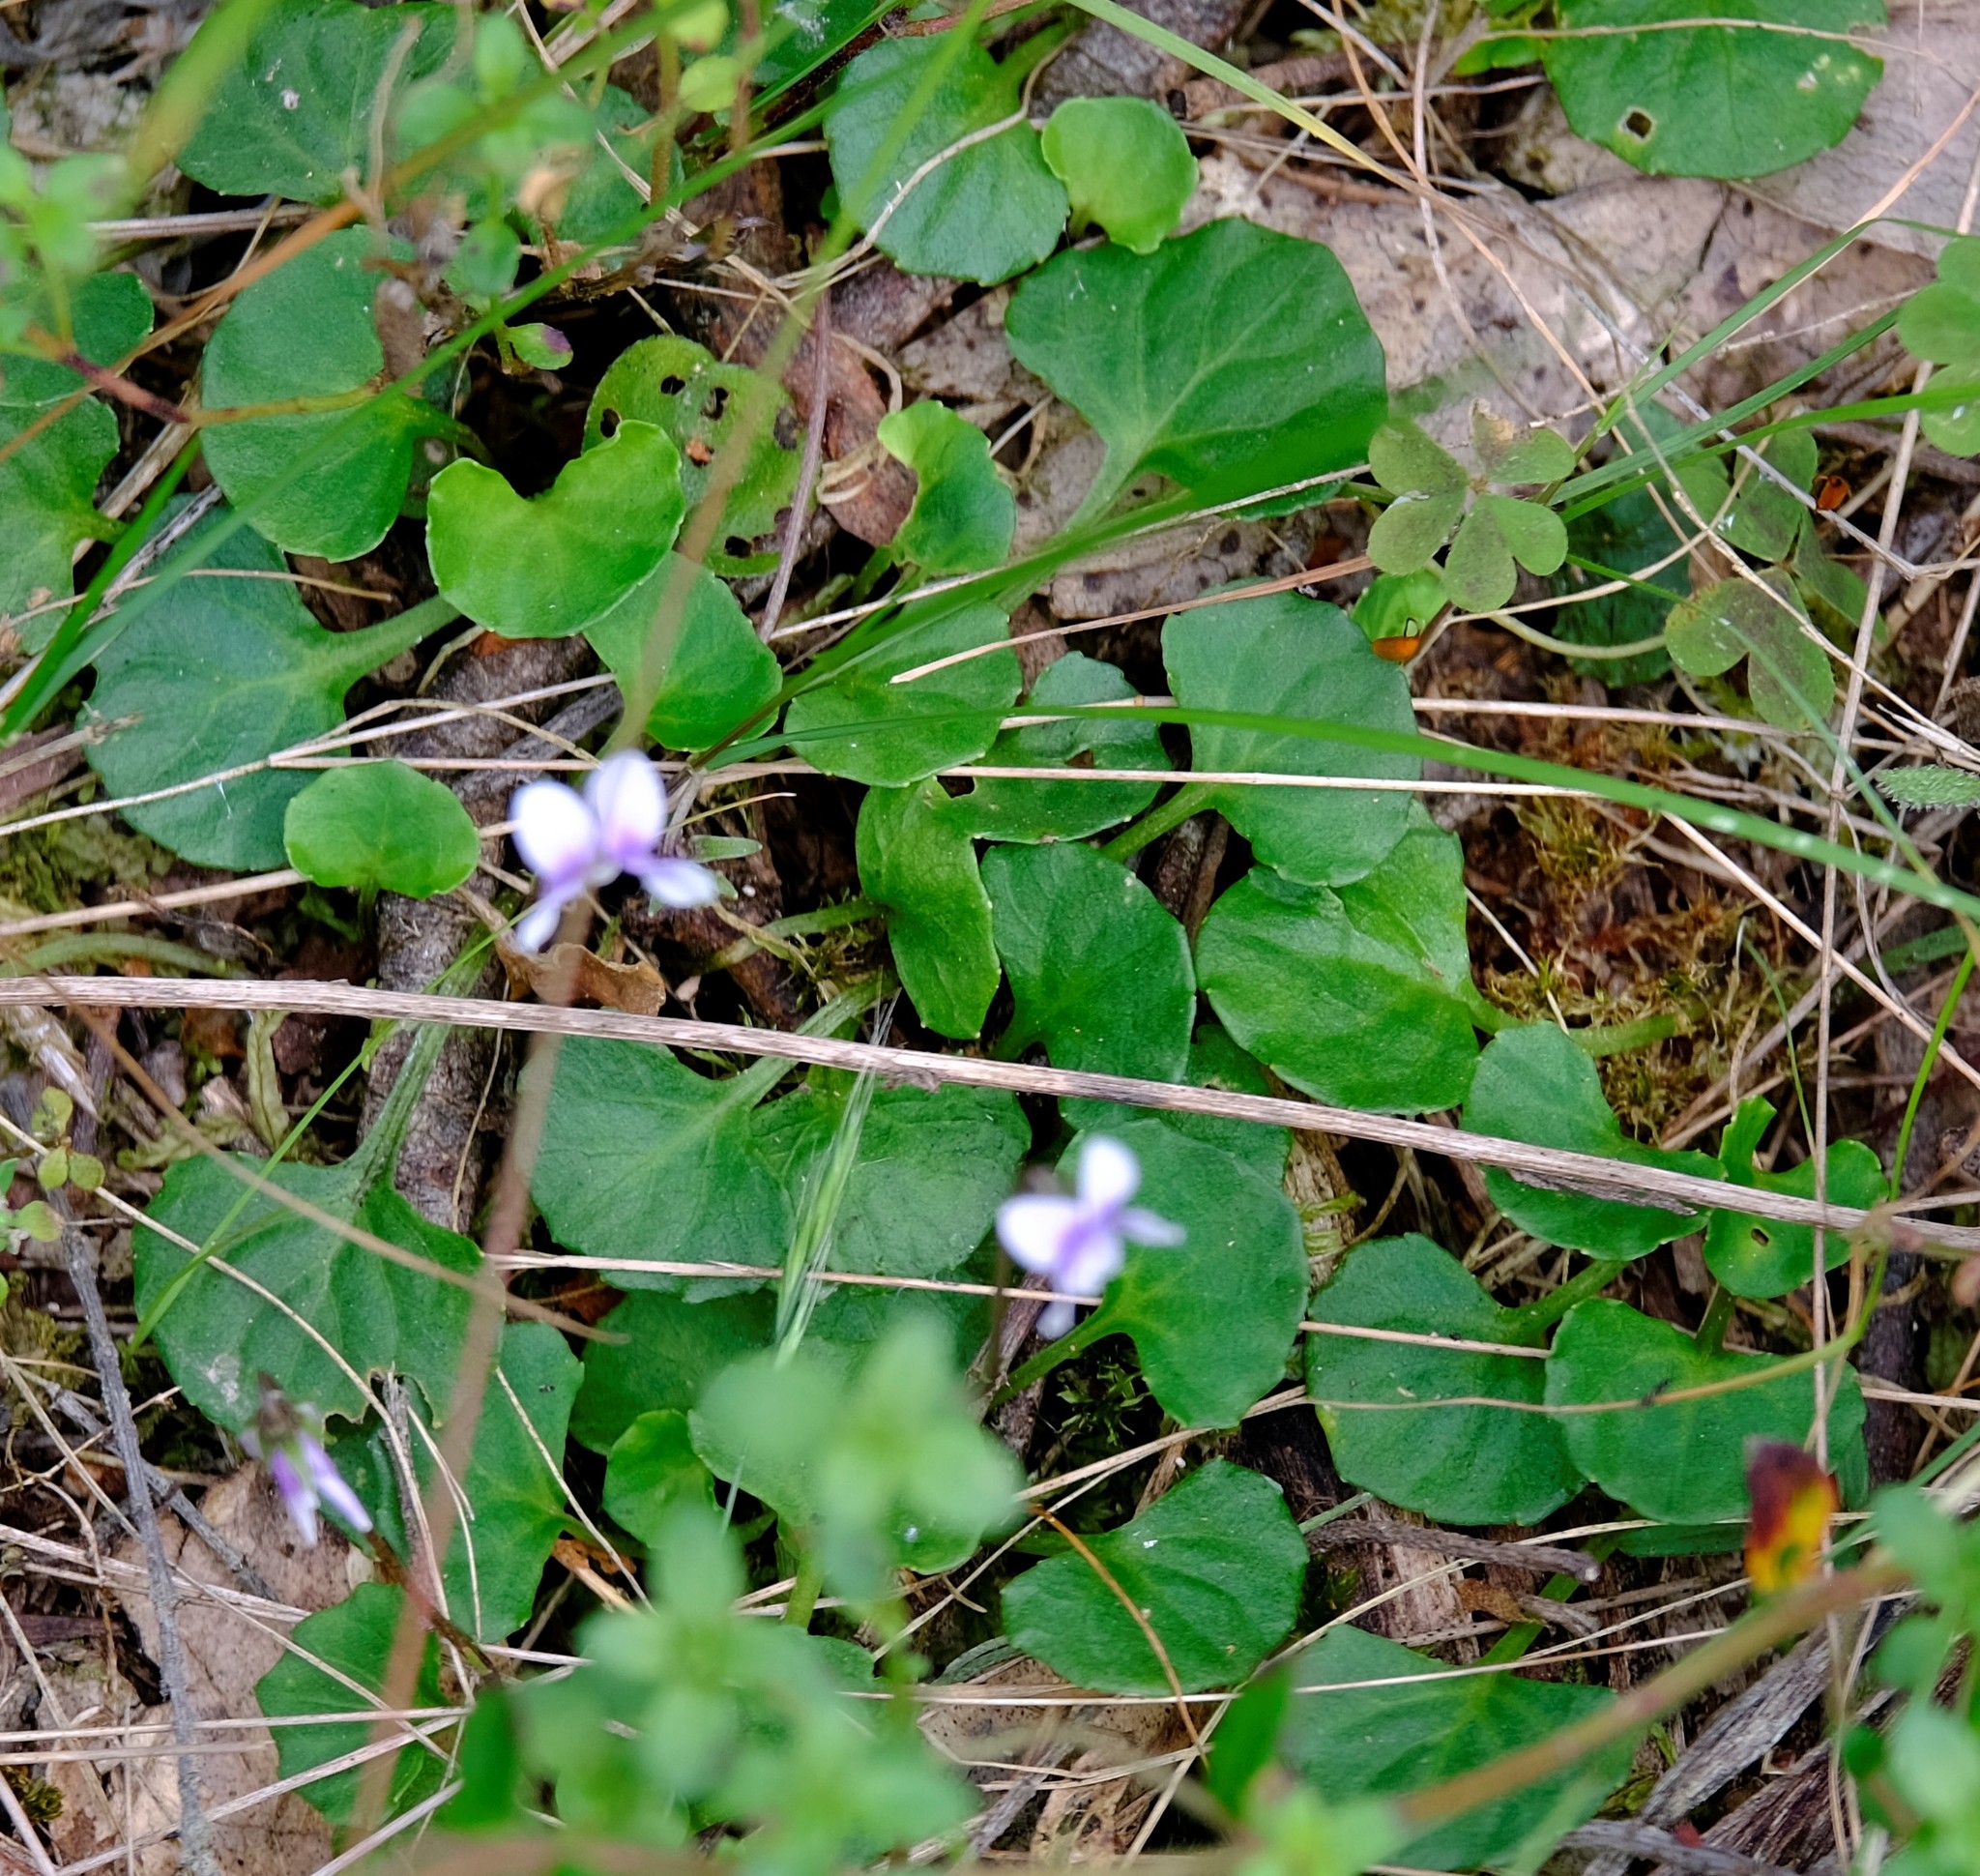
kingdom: Plantae
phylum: Tracheophyta
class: Magnoliopsida
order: Malpighiales
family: Violaceae
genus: Viola
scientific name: Viola hederacea
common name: Australian violet
